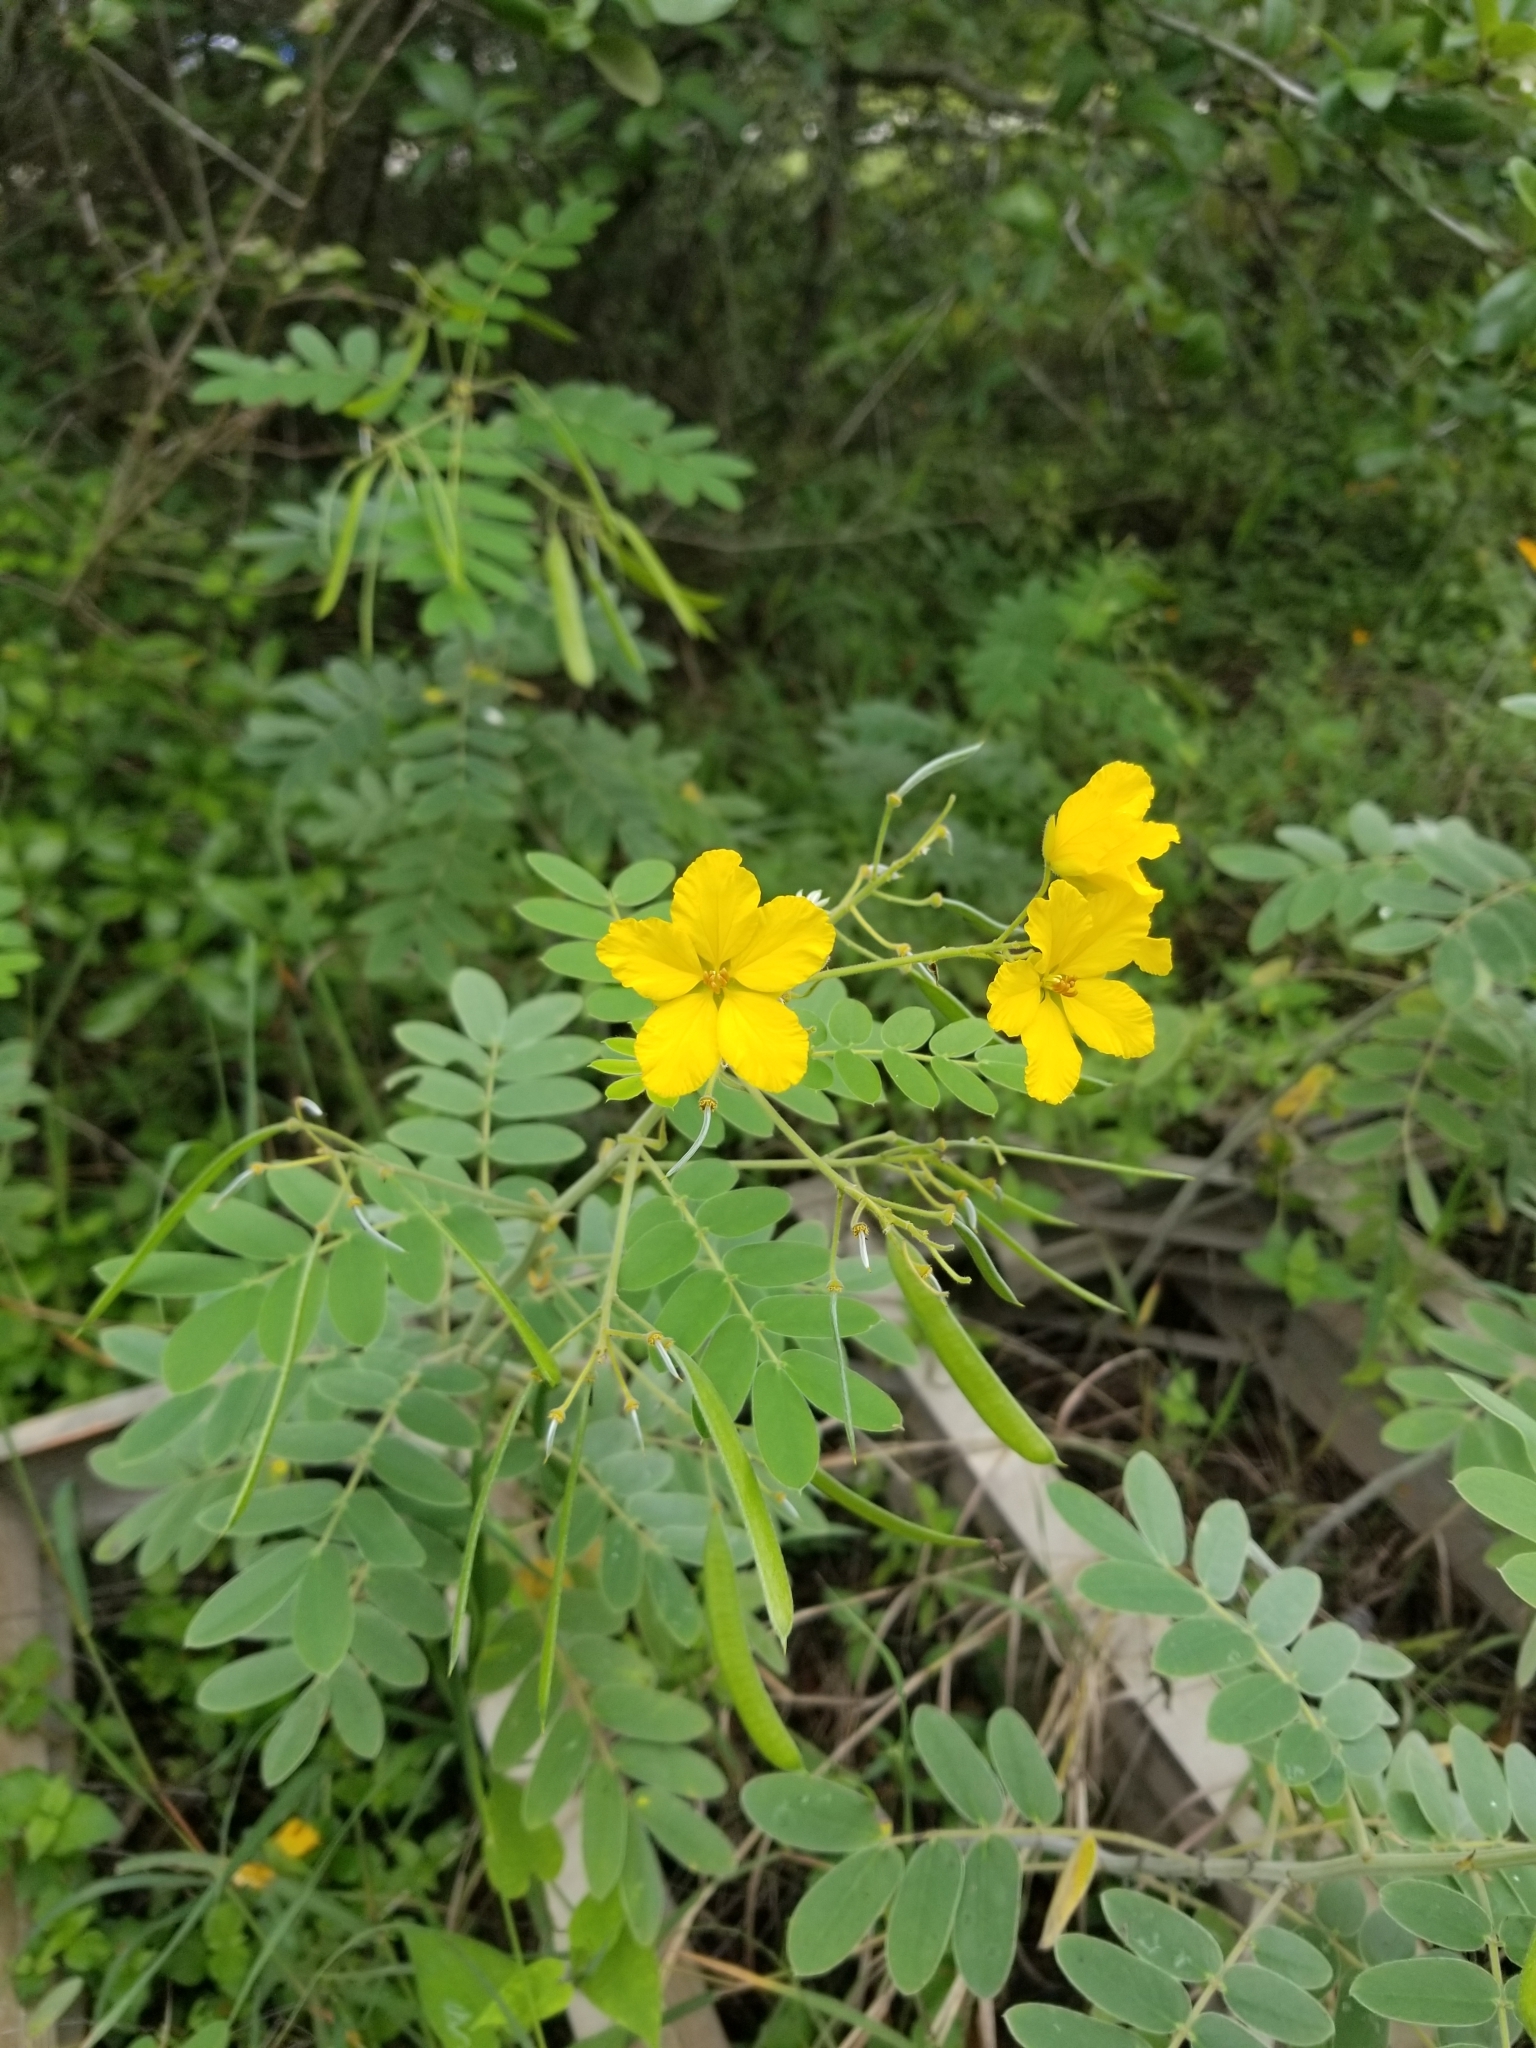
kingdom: Plantae
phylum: Tracheophyta
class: Magnoliopsida
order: Fabales
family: Fabaceae
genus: Senna
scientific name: Senna lindheimeriana
